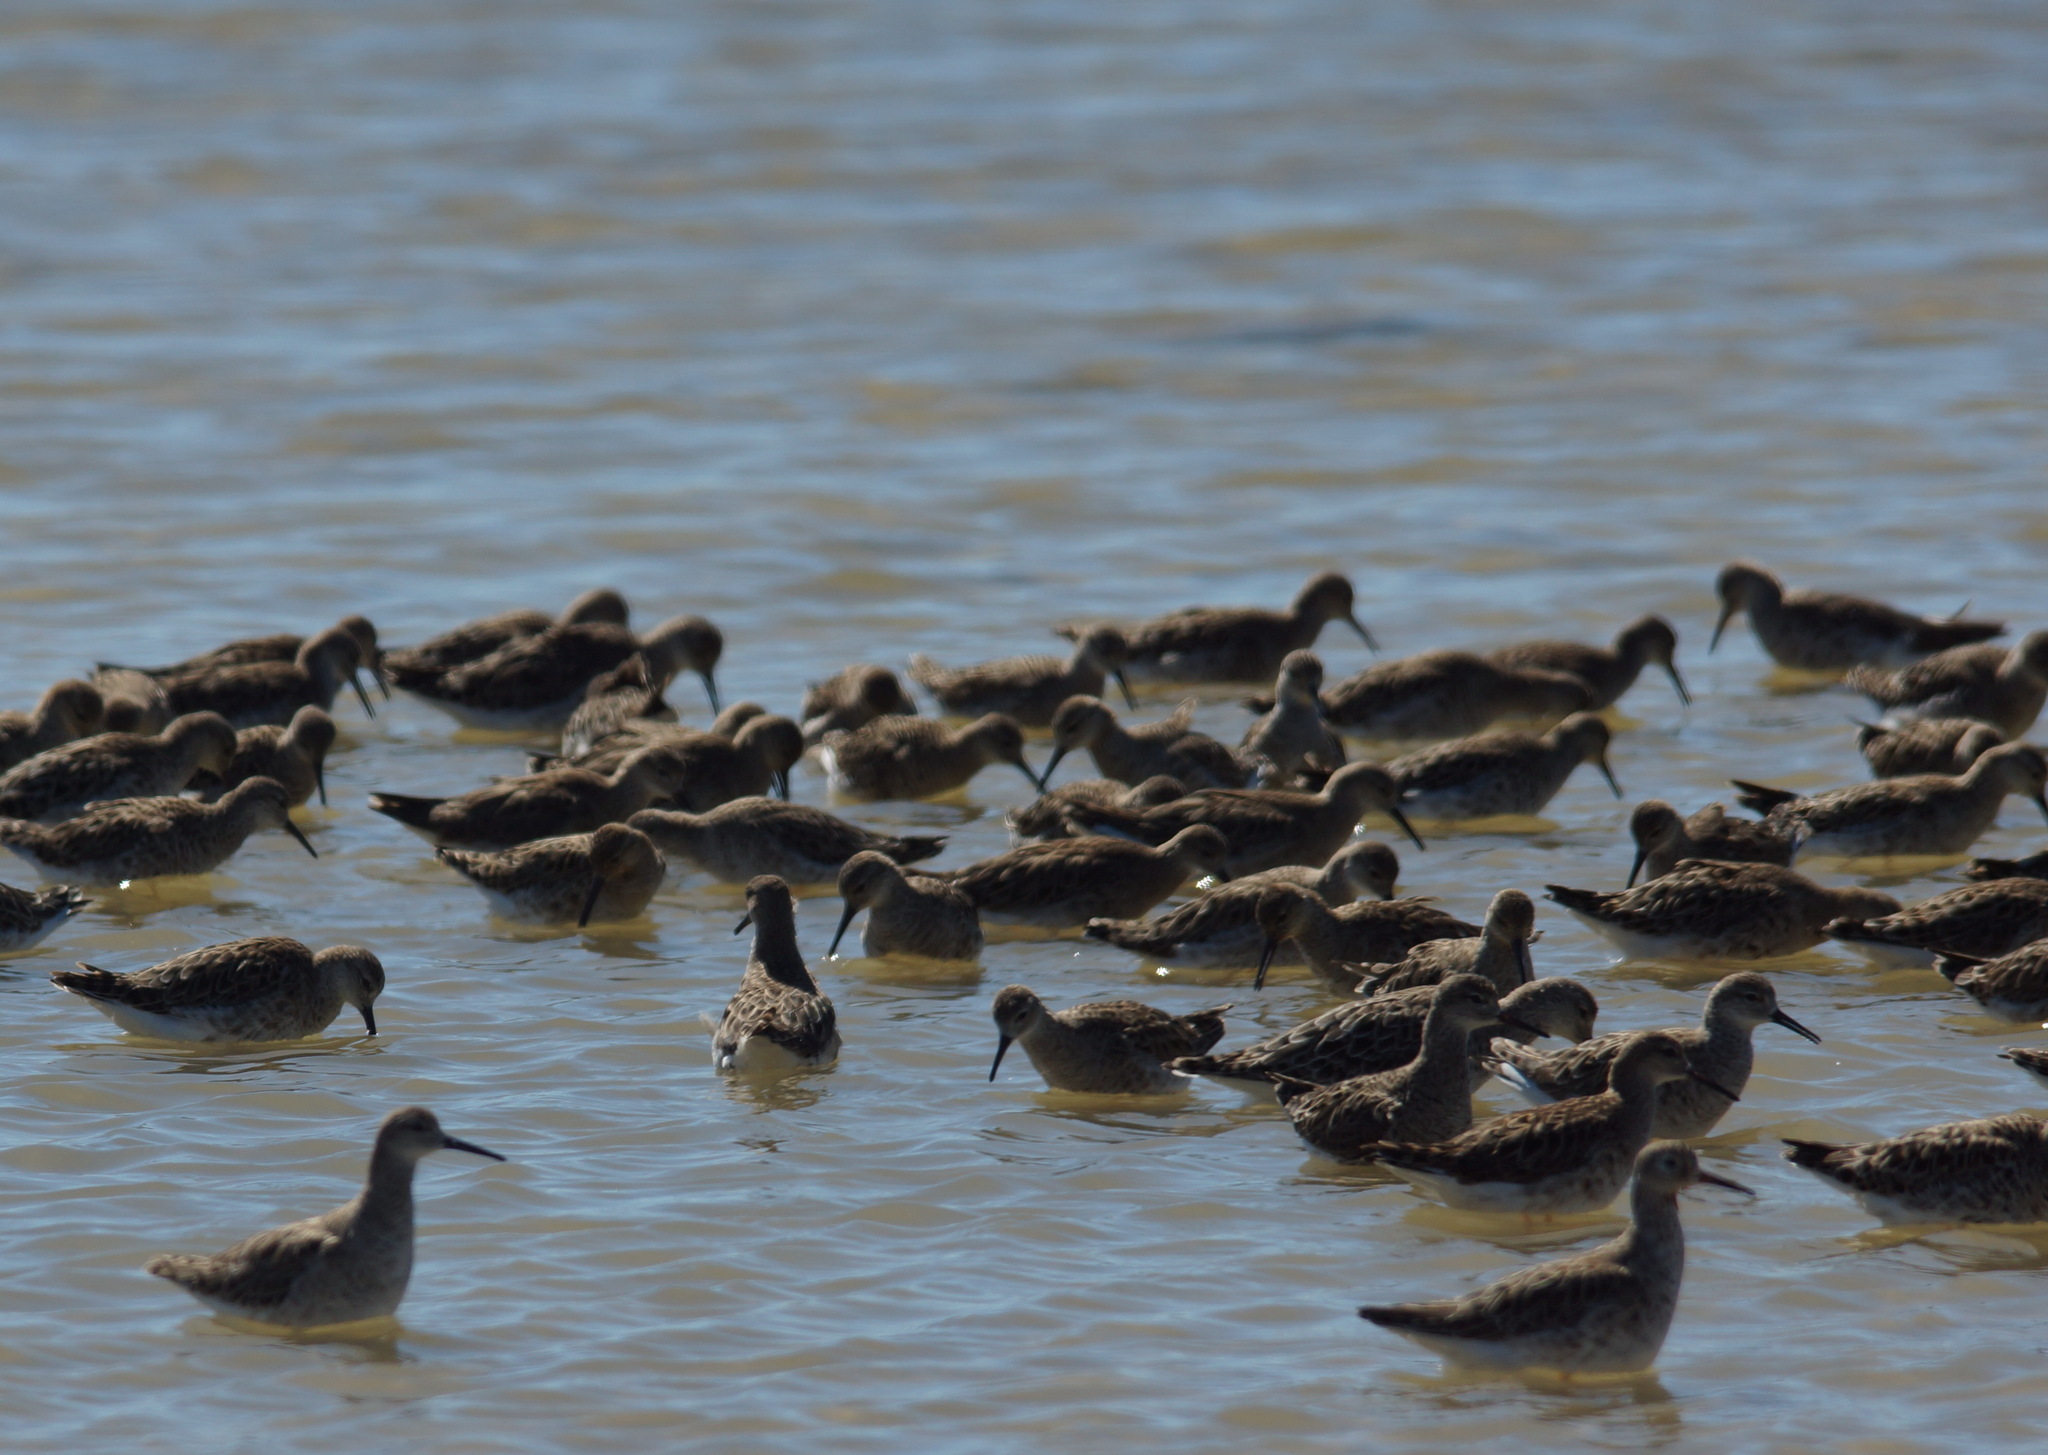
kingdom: Animalia
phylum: Chordata
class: Aves
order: Charadriiformes
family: Scolopacidae
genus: Calidris
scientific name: Calidris pugnax
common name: Ruff
